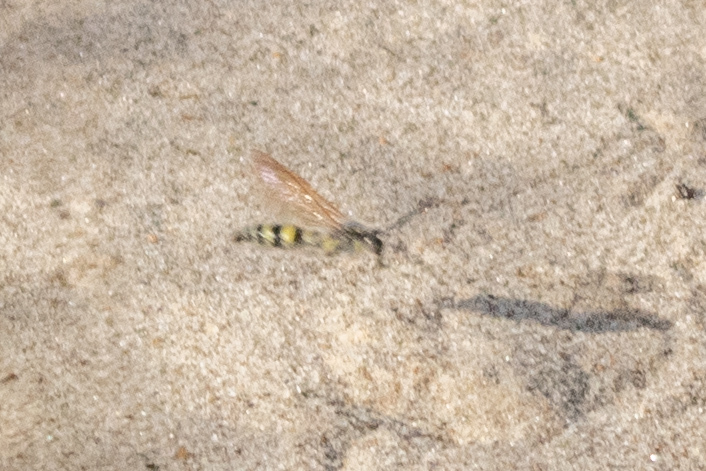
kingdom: Animalia
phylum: Arthropoda
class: Insecta
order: Hymenoptera
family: Scoliidae
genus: Radumeris
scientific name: Radumeris tasmaniensis
